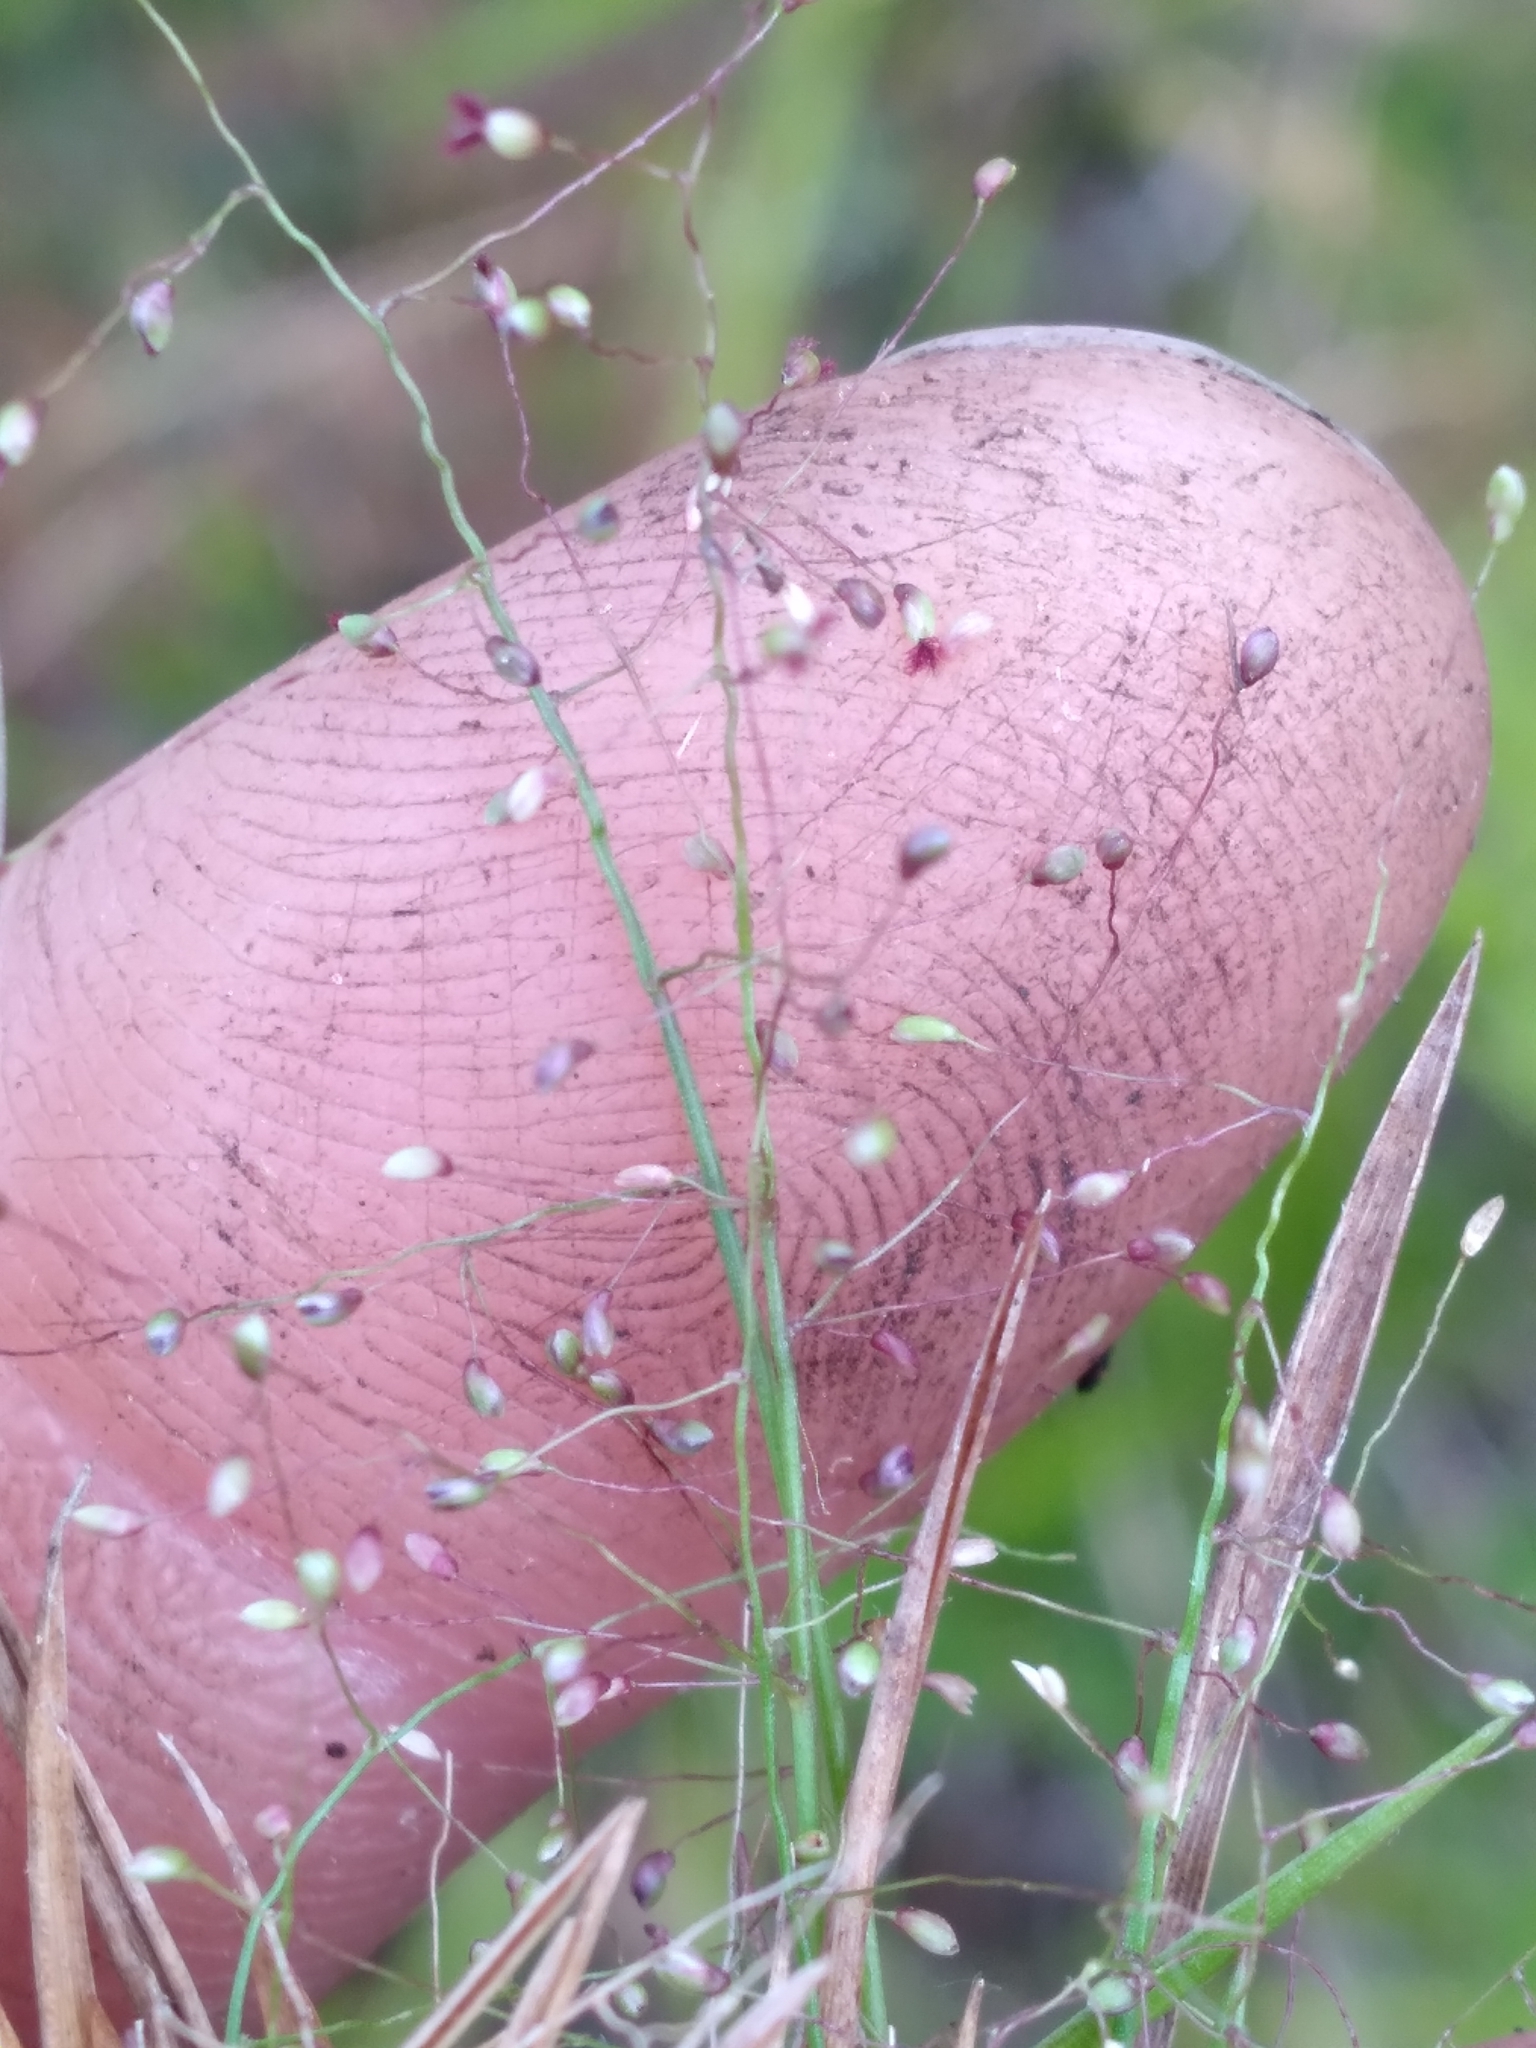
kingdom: Plantae
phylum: Tracheophyta
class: Liliopsida
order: Poales
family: Poaceae
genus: Dichanthelium
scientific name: Dichanthelium chamaelonche
